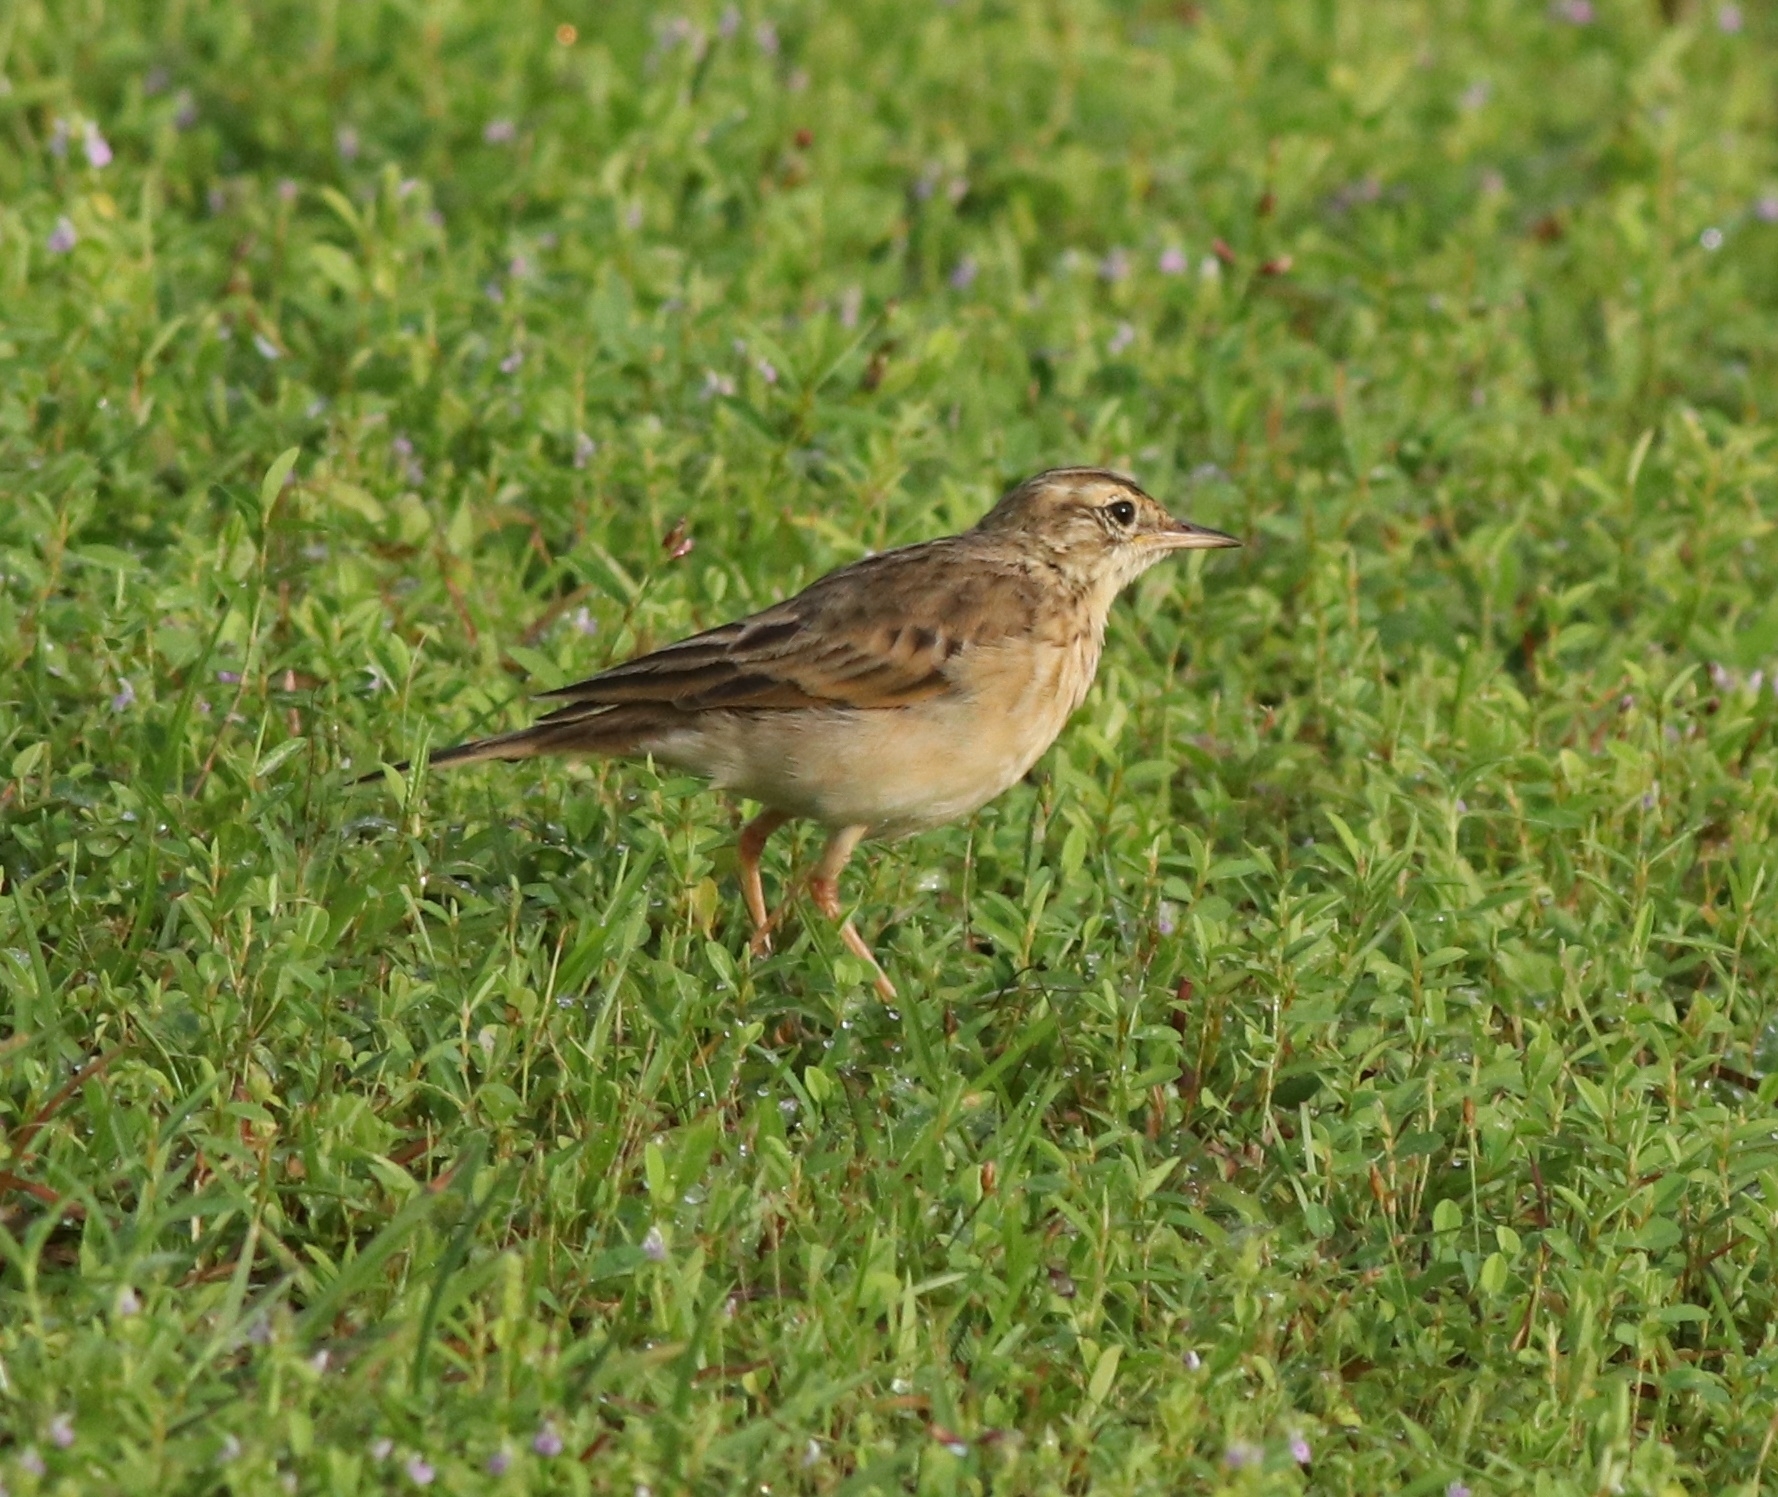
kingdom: Animalia
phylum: Chordata
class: Aves
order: Passeriformes
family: Motacillidae
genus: Anthus
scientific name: Anthus rufulus
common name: Paddyfield pipit
